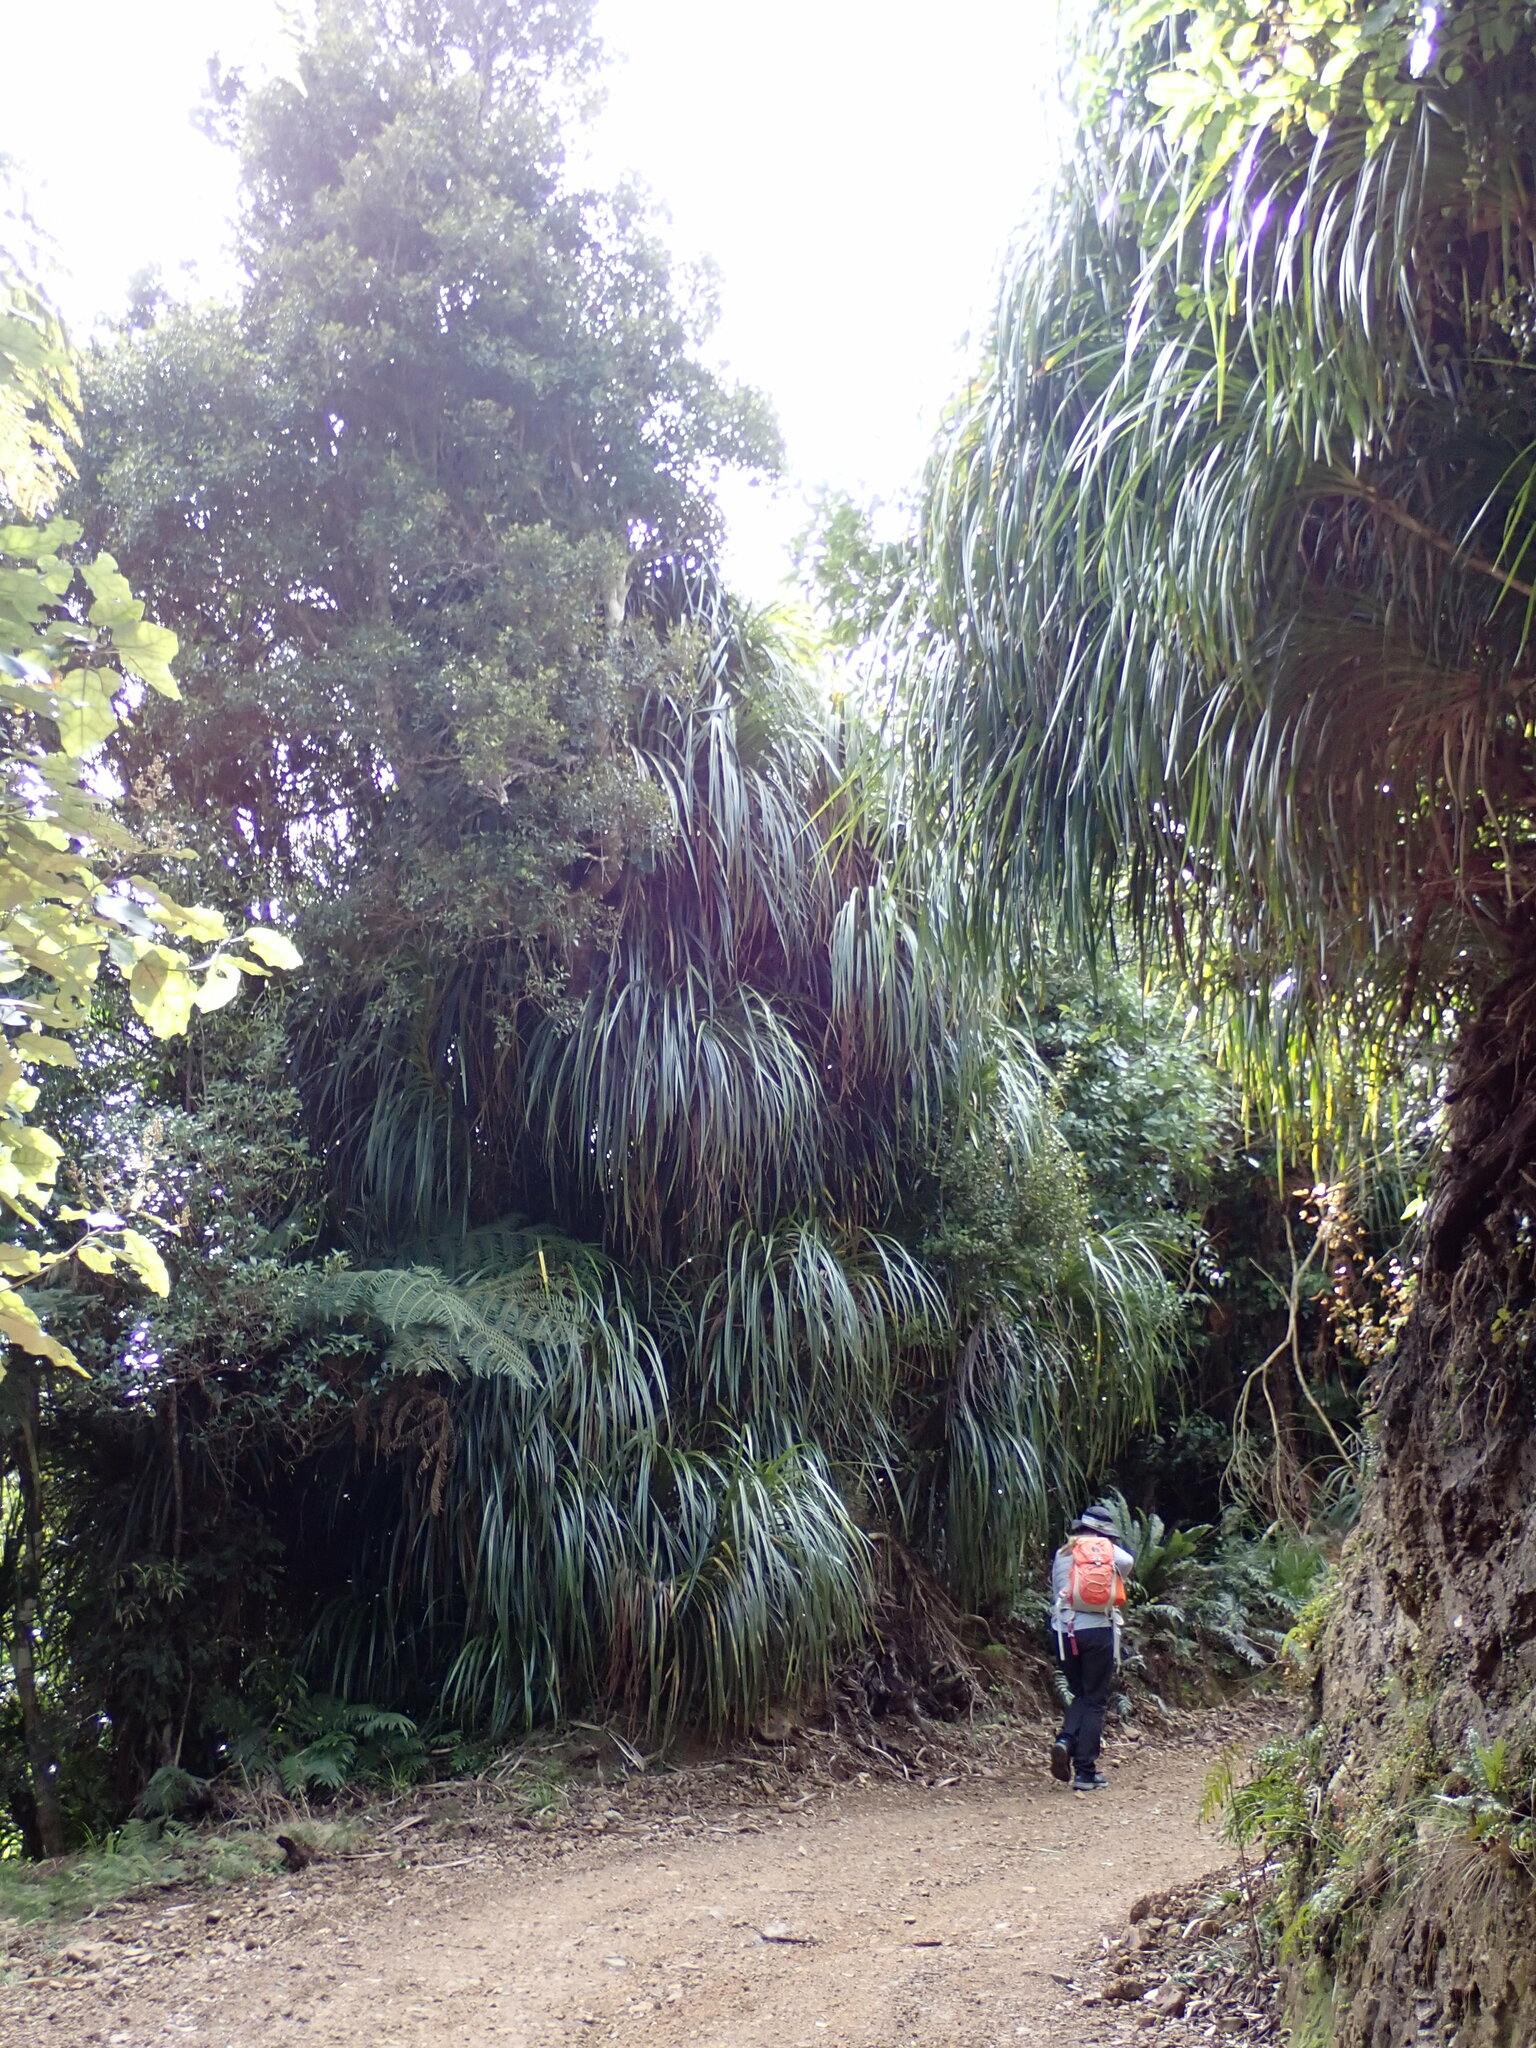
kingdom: Plantae
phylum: Tracheophyta
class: Liliopsida
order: Pandanales
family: Pandanaceae
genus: Freycinetia
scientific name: Freycinetia banksii
